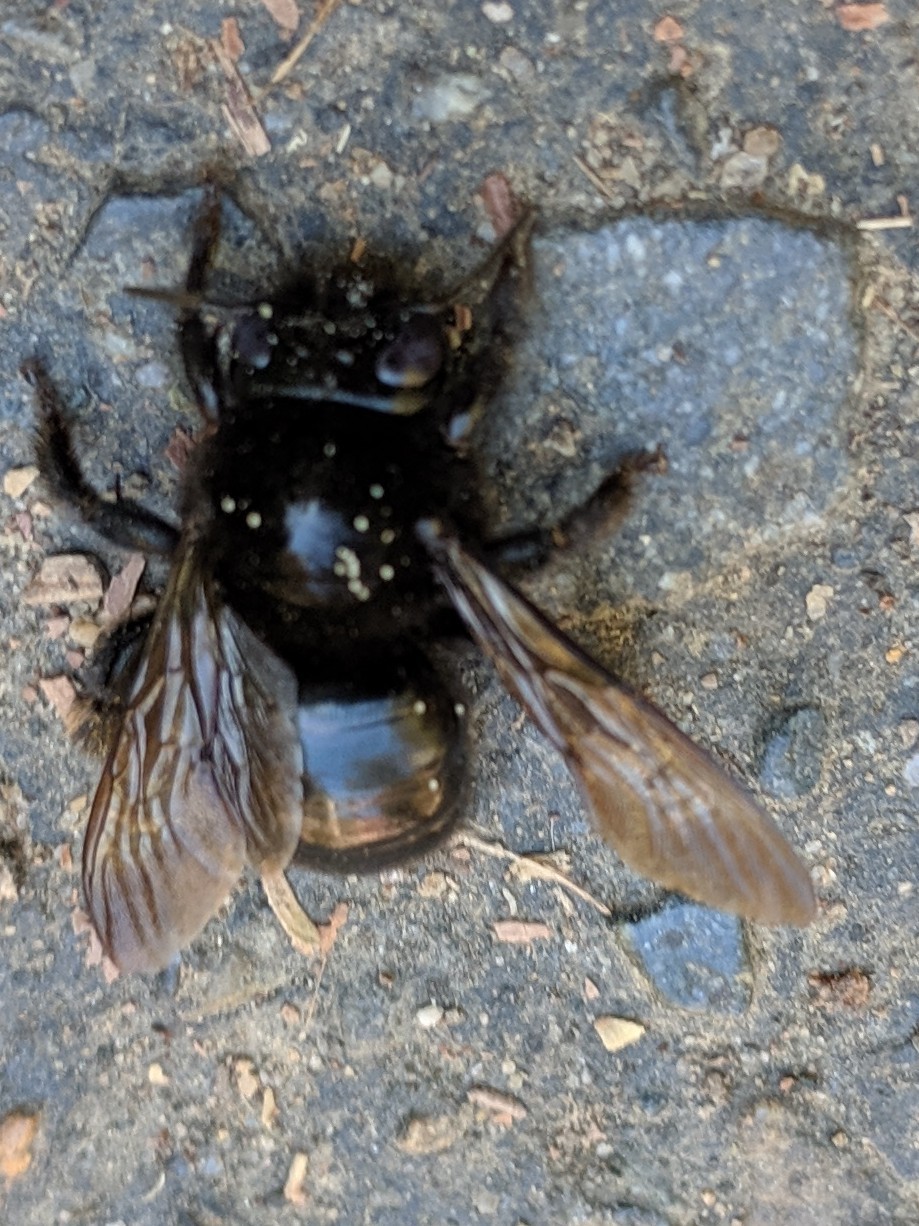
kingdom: Animalia
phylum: Arthropoda
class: Insecta
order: Hymenoptera
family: Apidae
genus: Xylocopa
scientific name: Xylocopa tabaniformis
